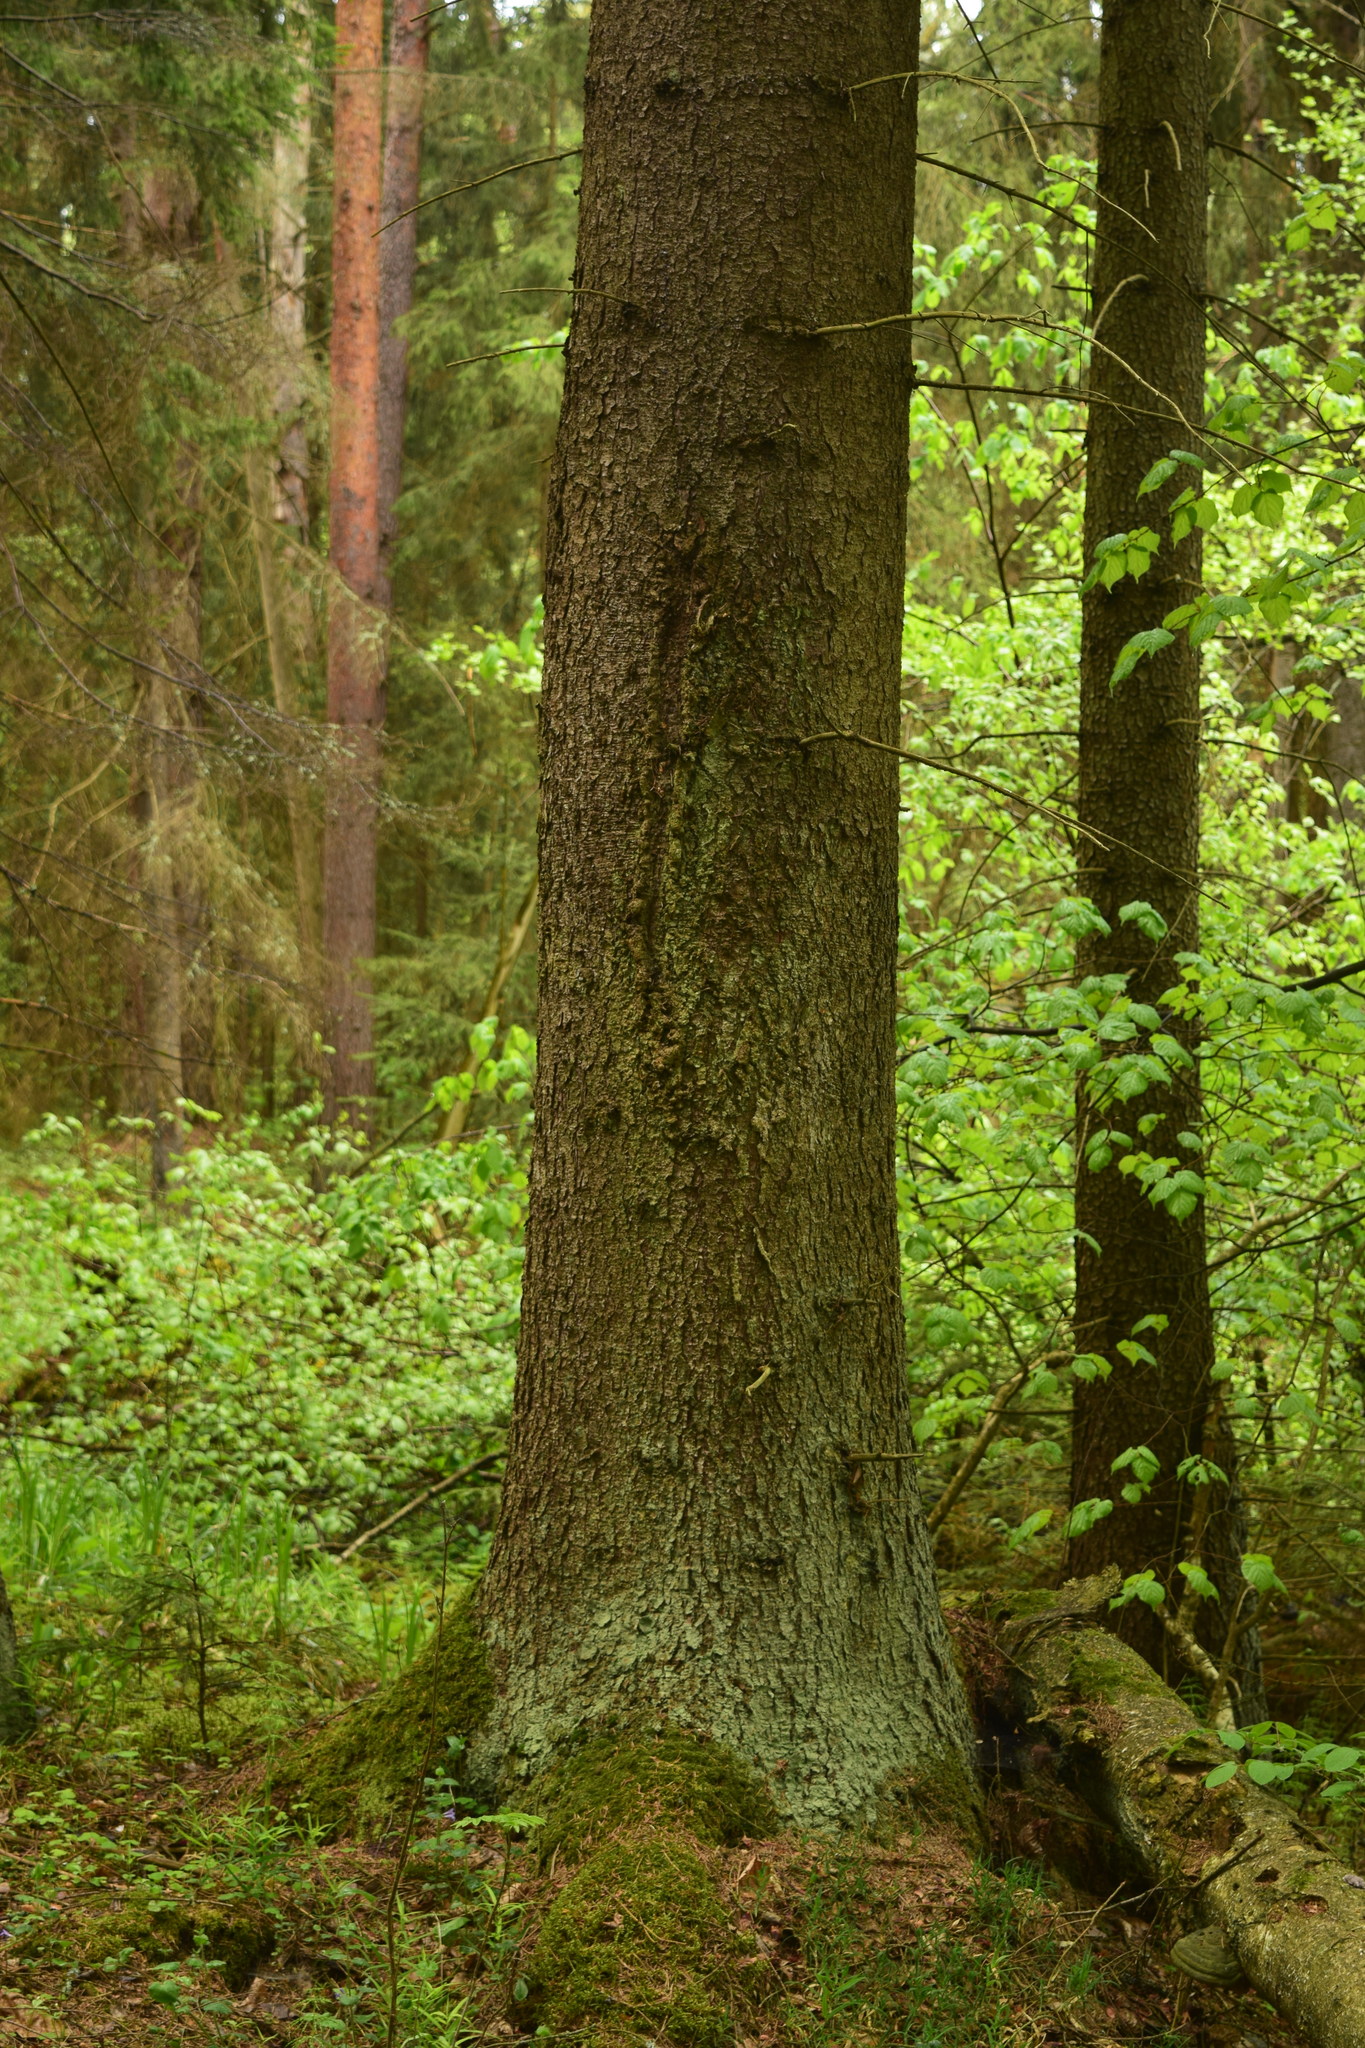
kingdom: Plantae
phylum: Tracheophyta
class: Pinopsida
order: Pinales
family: Pinaceae
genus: Picea
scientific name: Picea abies
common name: Norway spruce
